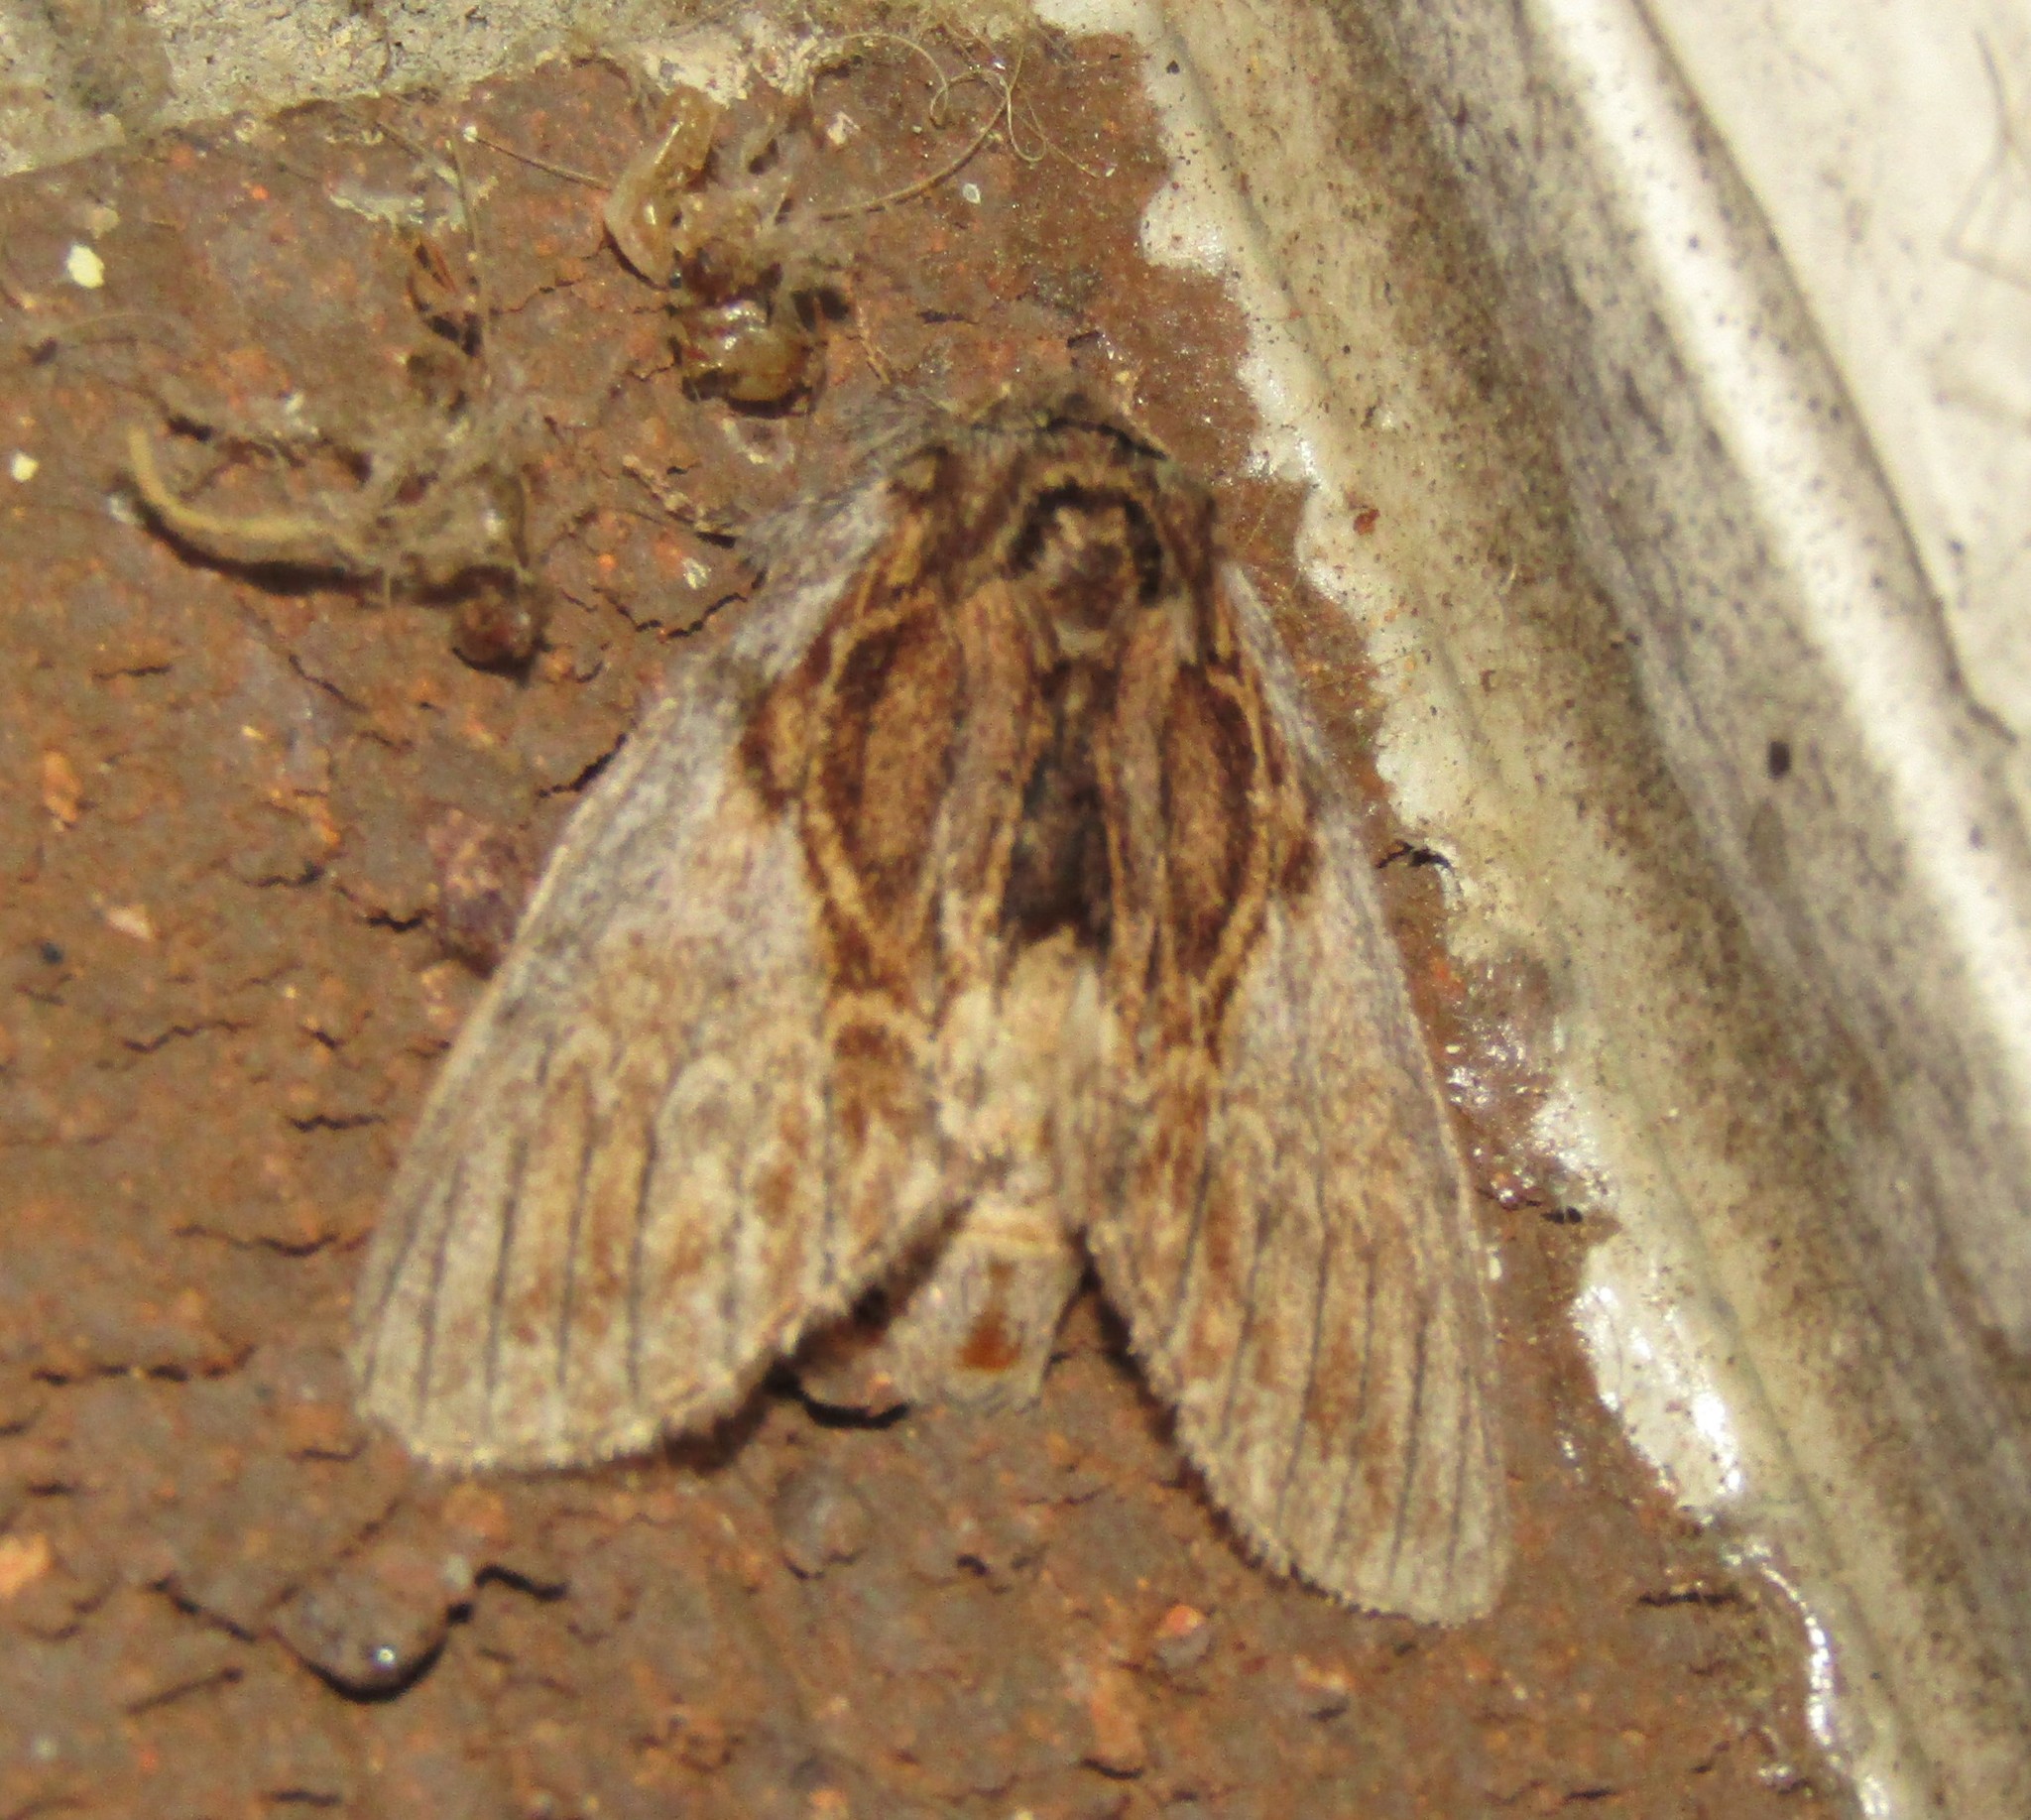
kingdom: Animalia
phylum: Arthropoda
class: Insecta
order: Lepidoptera
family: Notodontidae
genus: Peridea
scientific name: Peridea basitriens
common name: Oval-based prominent
